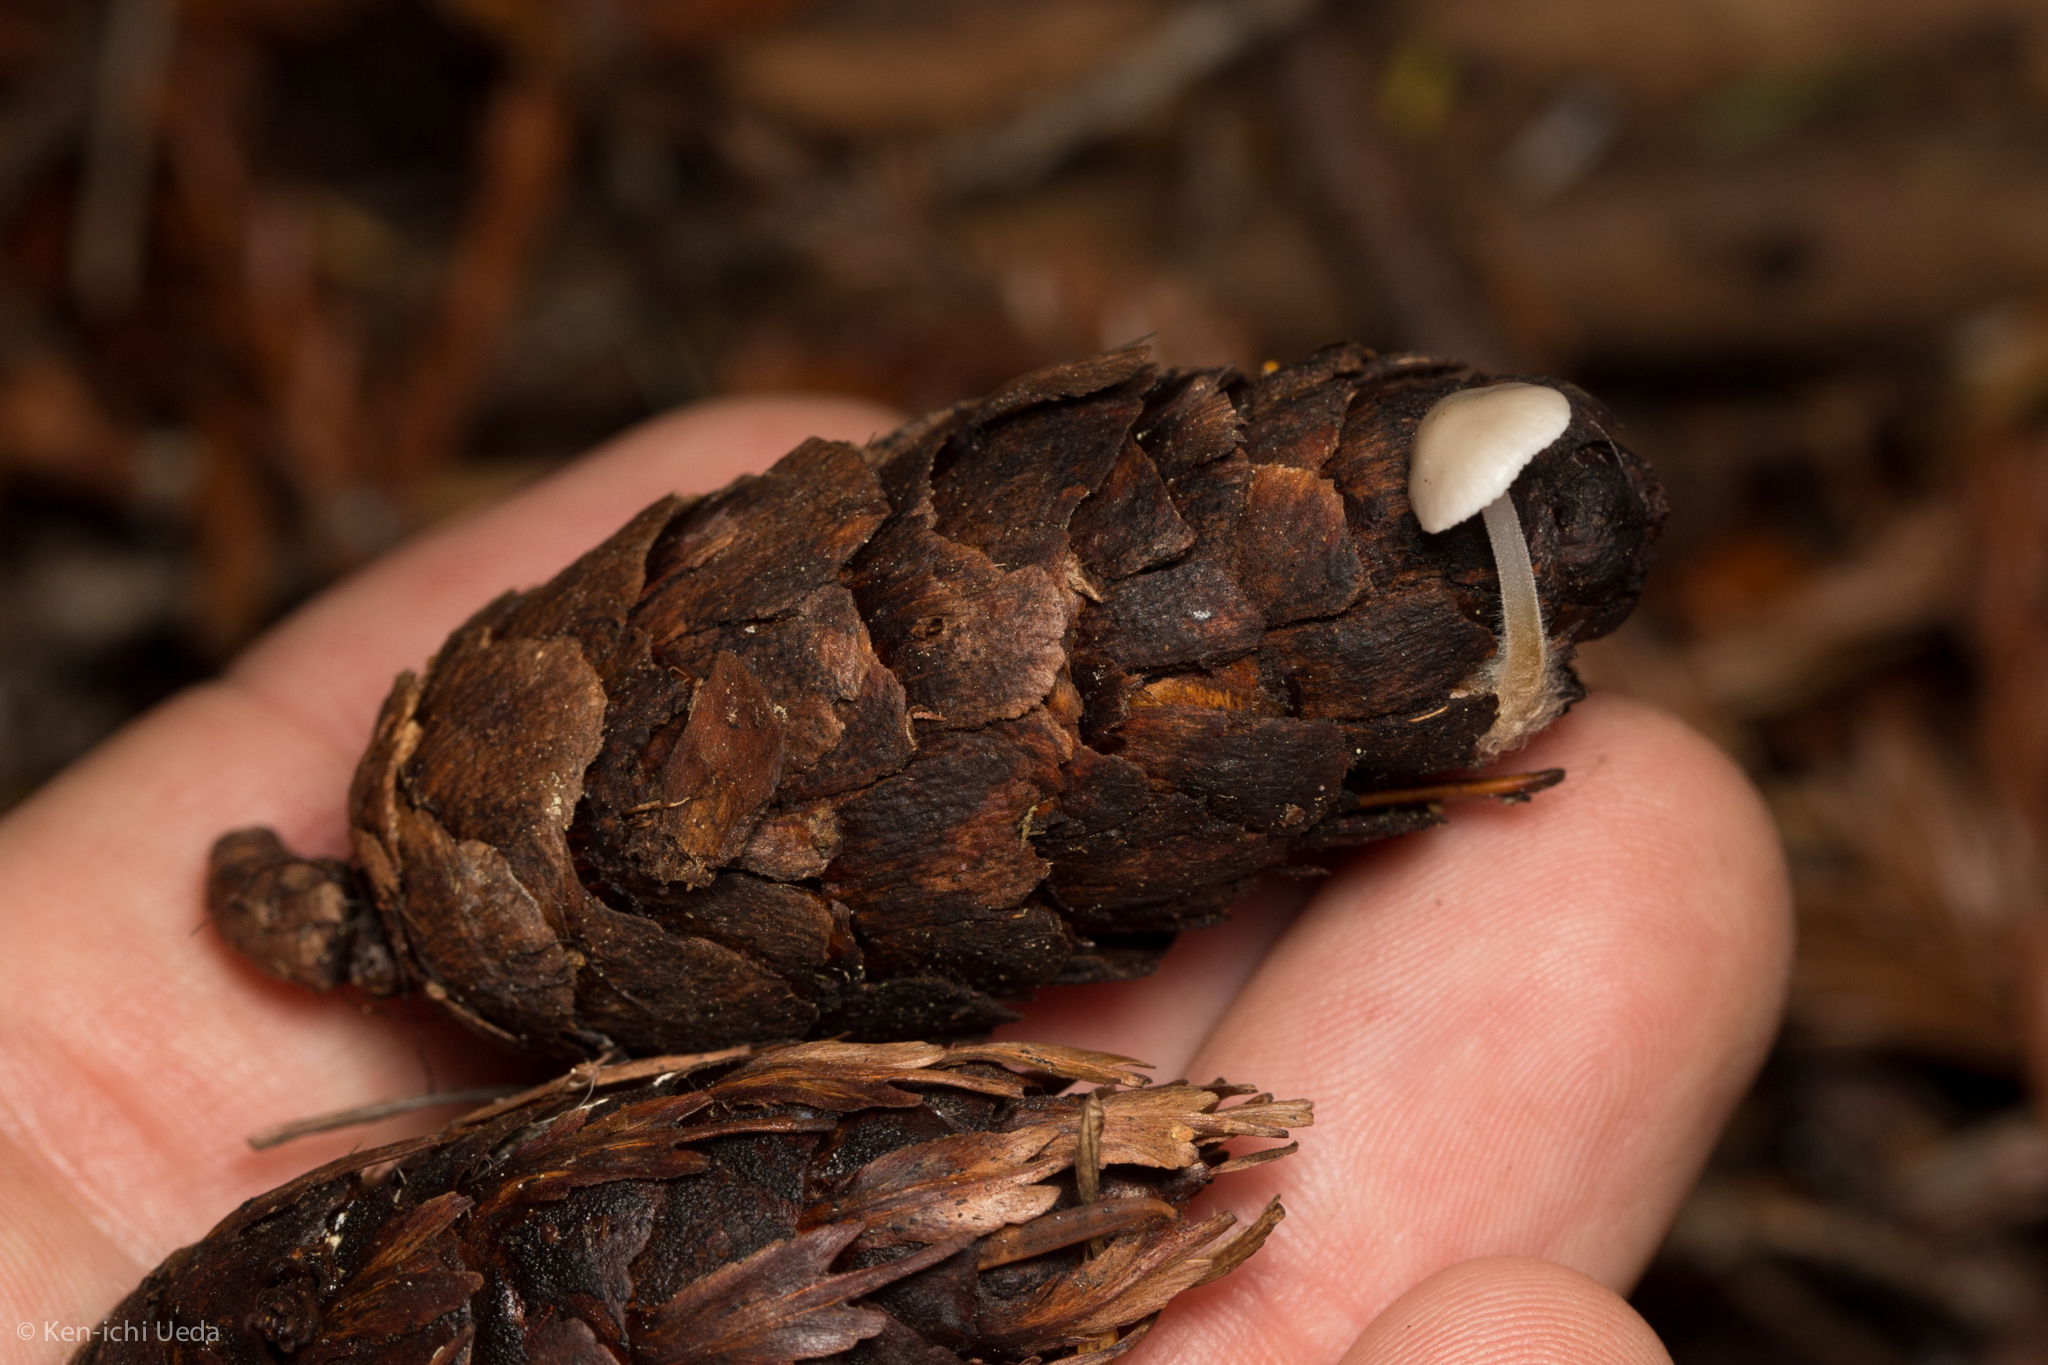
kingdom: Fungi
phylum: Basidiomycota
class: Agaricomycetes
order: Agaricales
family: Physalacriaceae
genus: Strobilurus
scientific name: Strobilurus trullisatus
